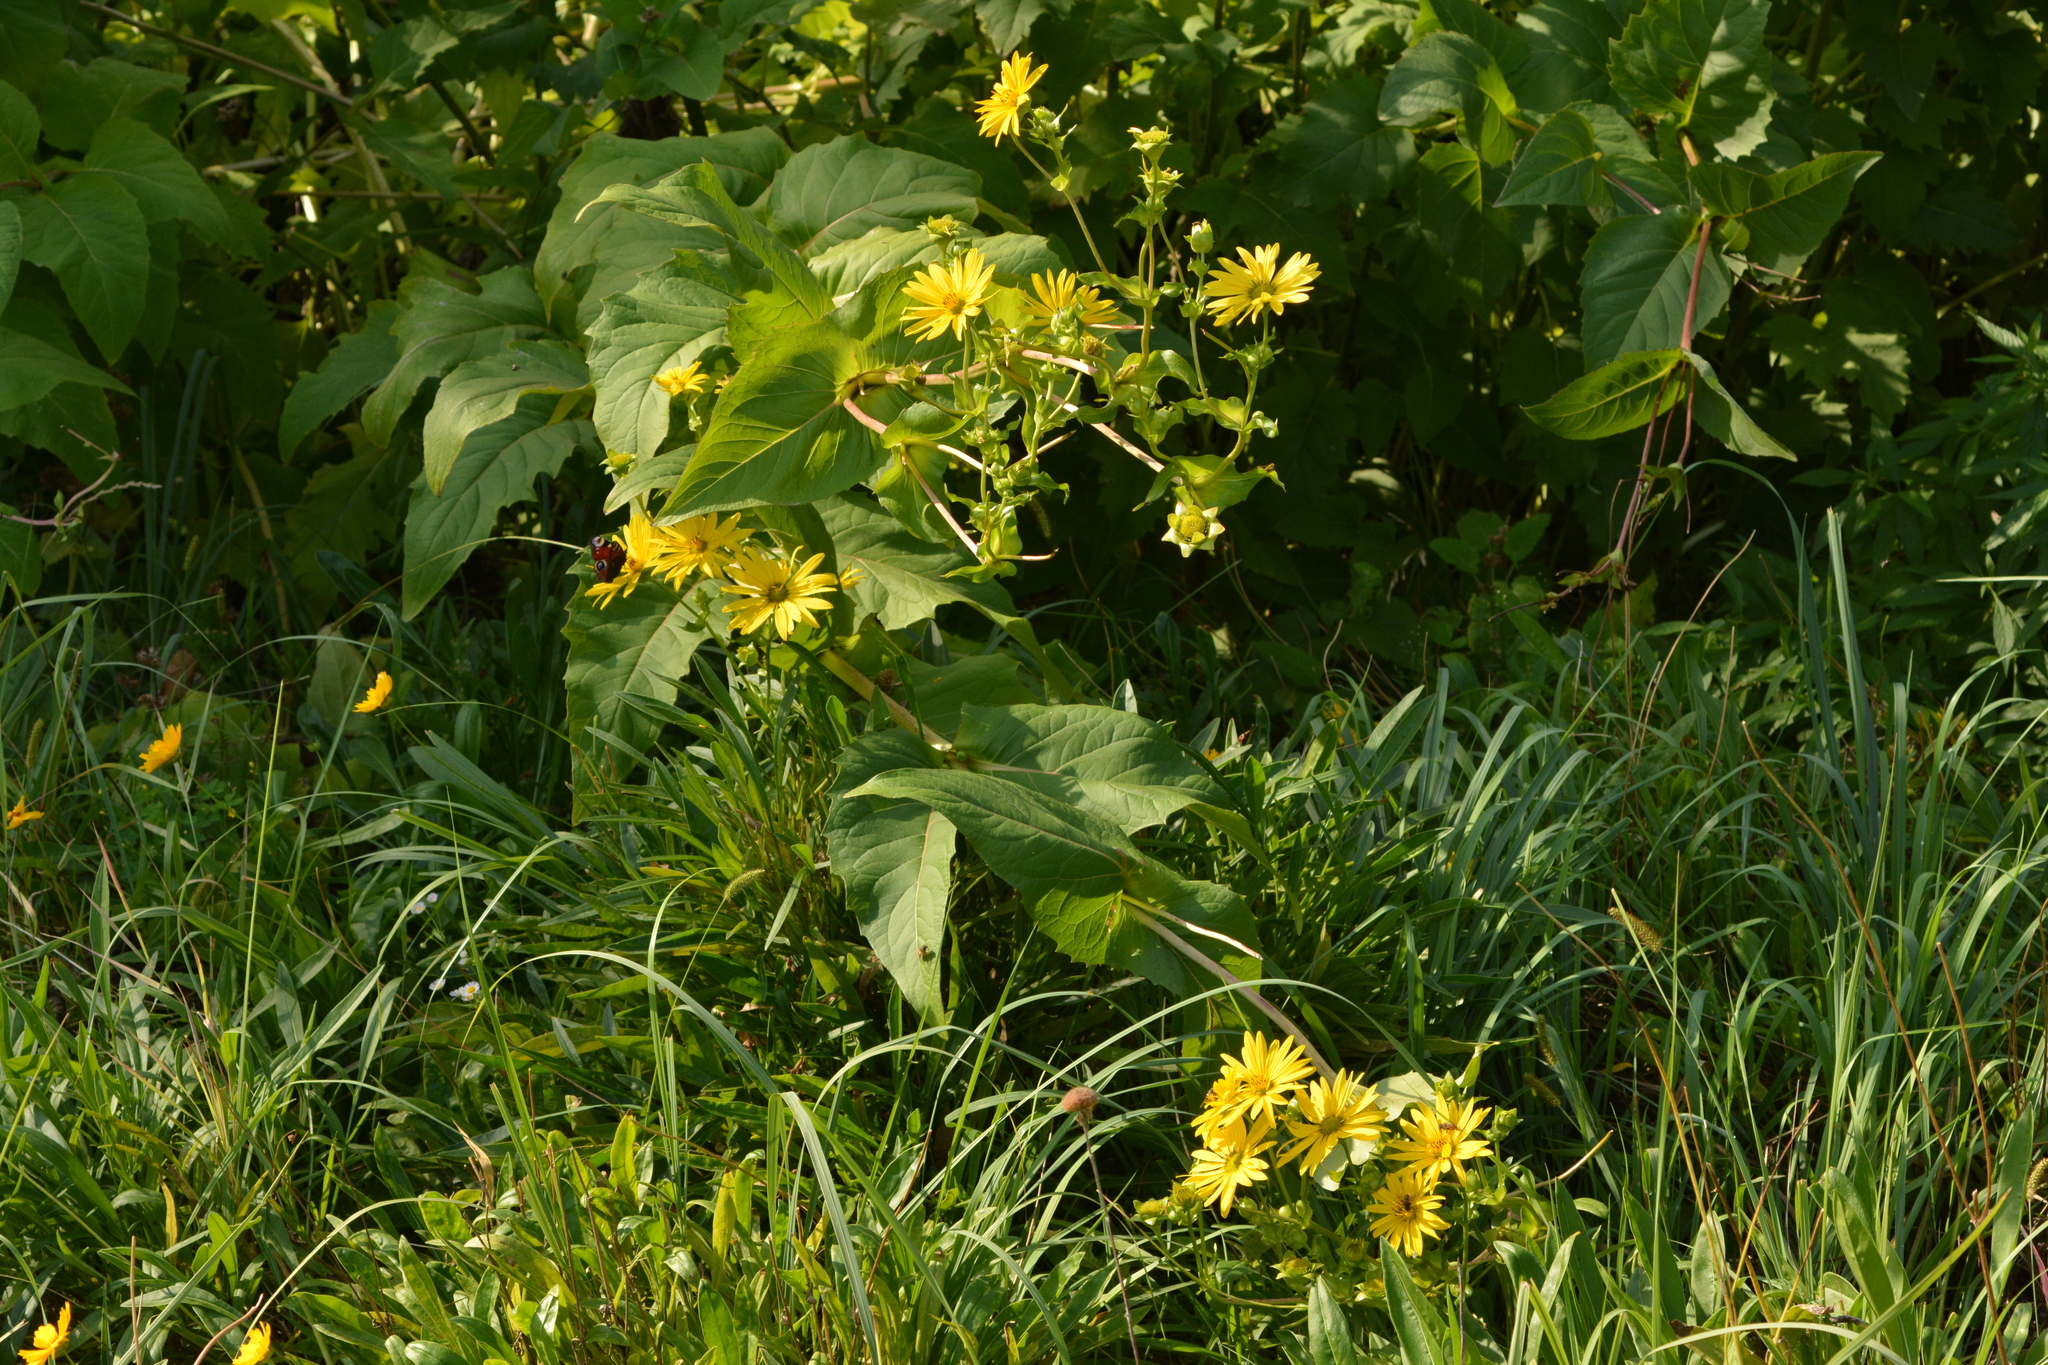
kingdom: Plantae
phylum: Tracheophyta
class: Magnoliopsida
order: Asterales
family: Asteraceae
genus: Silphium
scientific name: Silphium perfoliatum
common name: Cup-plant
